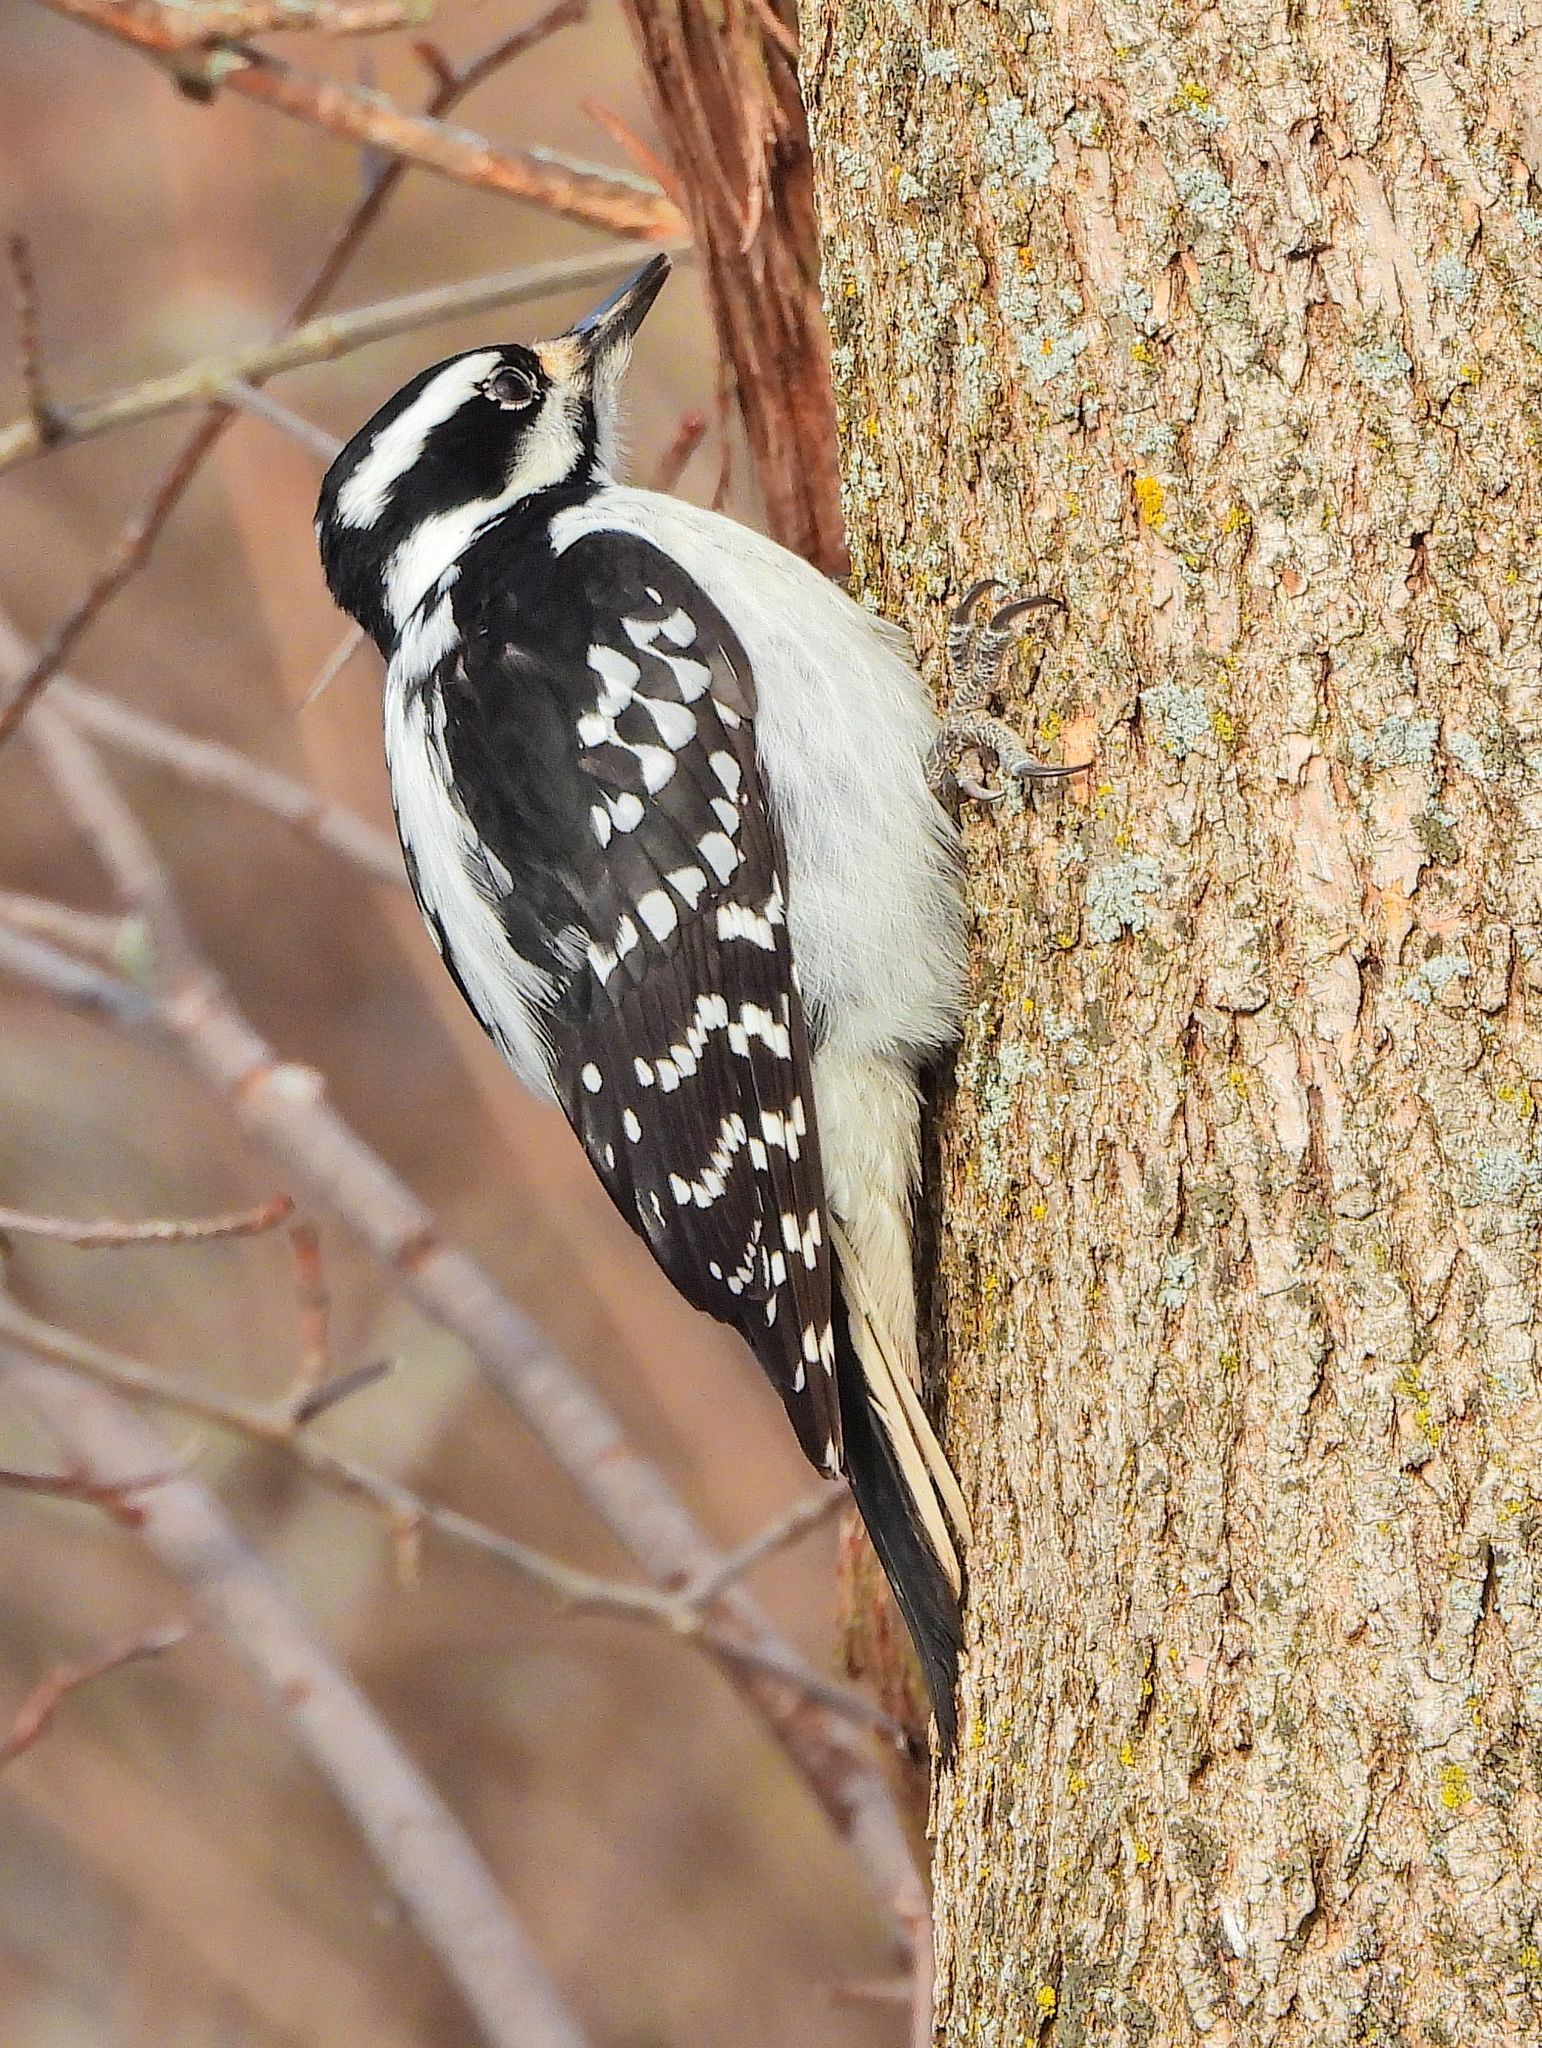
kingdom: Animalia
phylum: Chordata
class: Aves
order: Piciformes
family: Picidae
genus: Leuconotopicus
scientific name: Leuconotopicus villosus
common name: Hairy woodpecker
